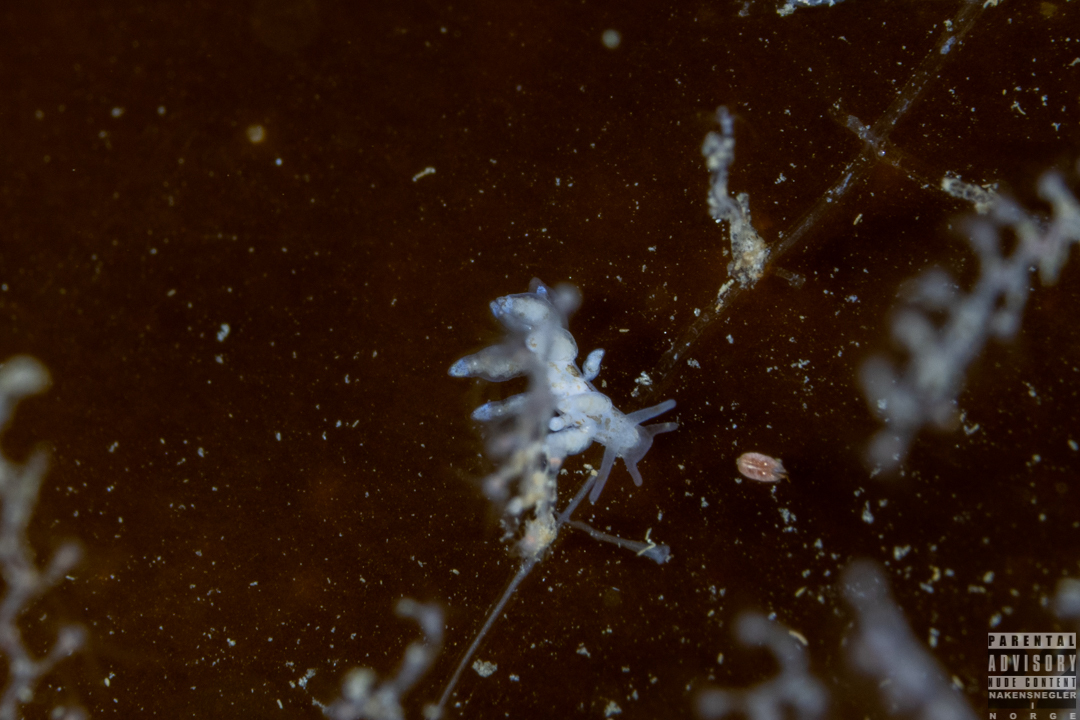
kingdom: Animalia
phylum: Mollusca
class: Gastropoda
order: Nudibranchia
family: Eubranchidae
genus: Eubranchus
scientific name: Eubranchus exiguus
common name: Balloon aeolis
